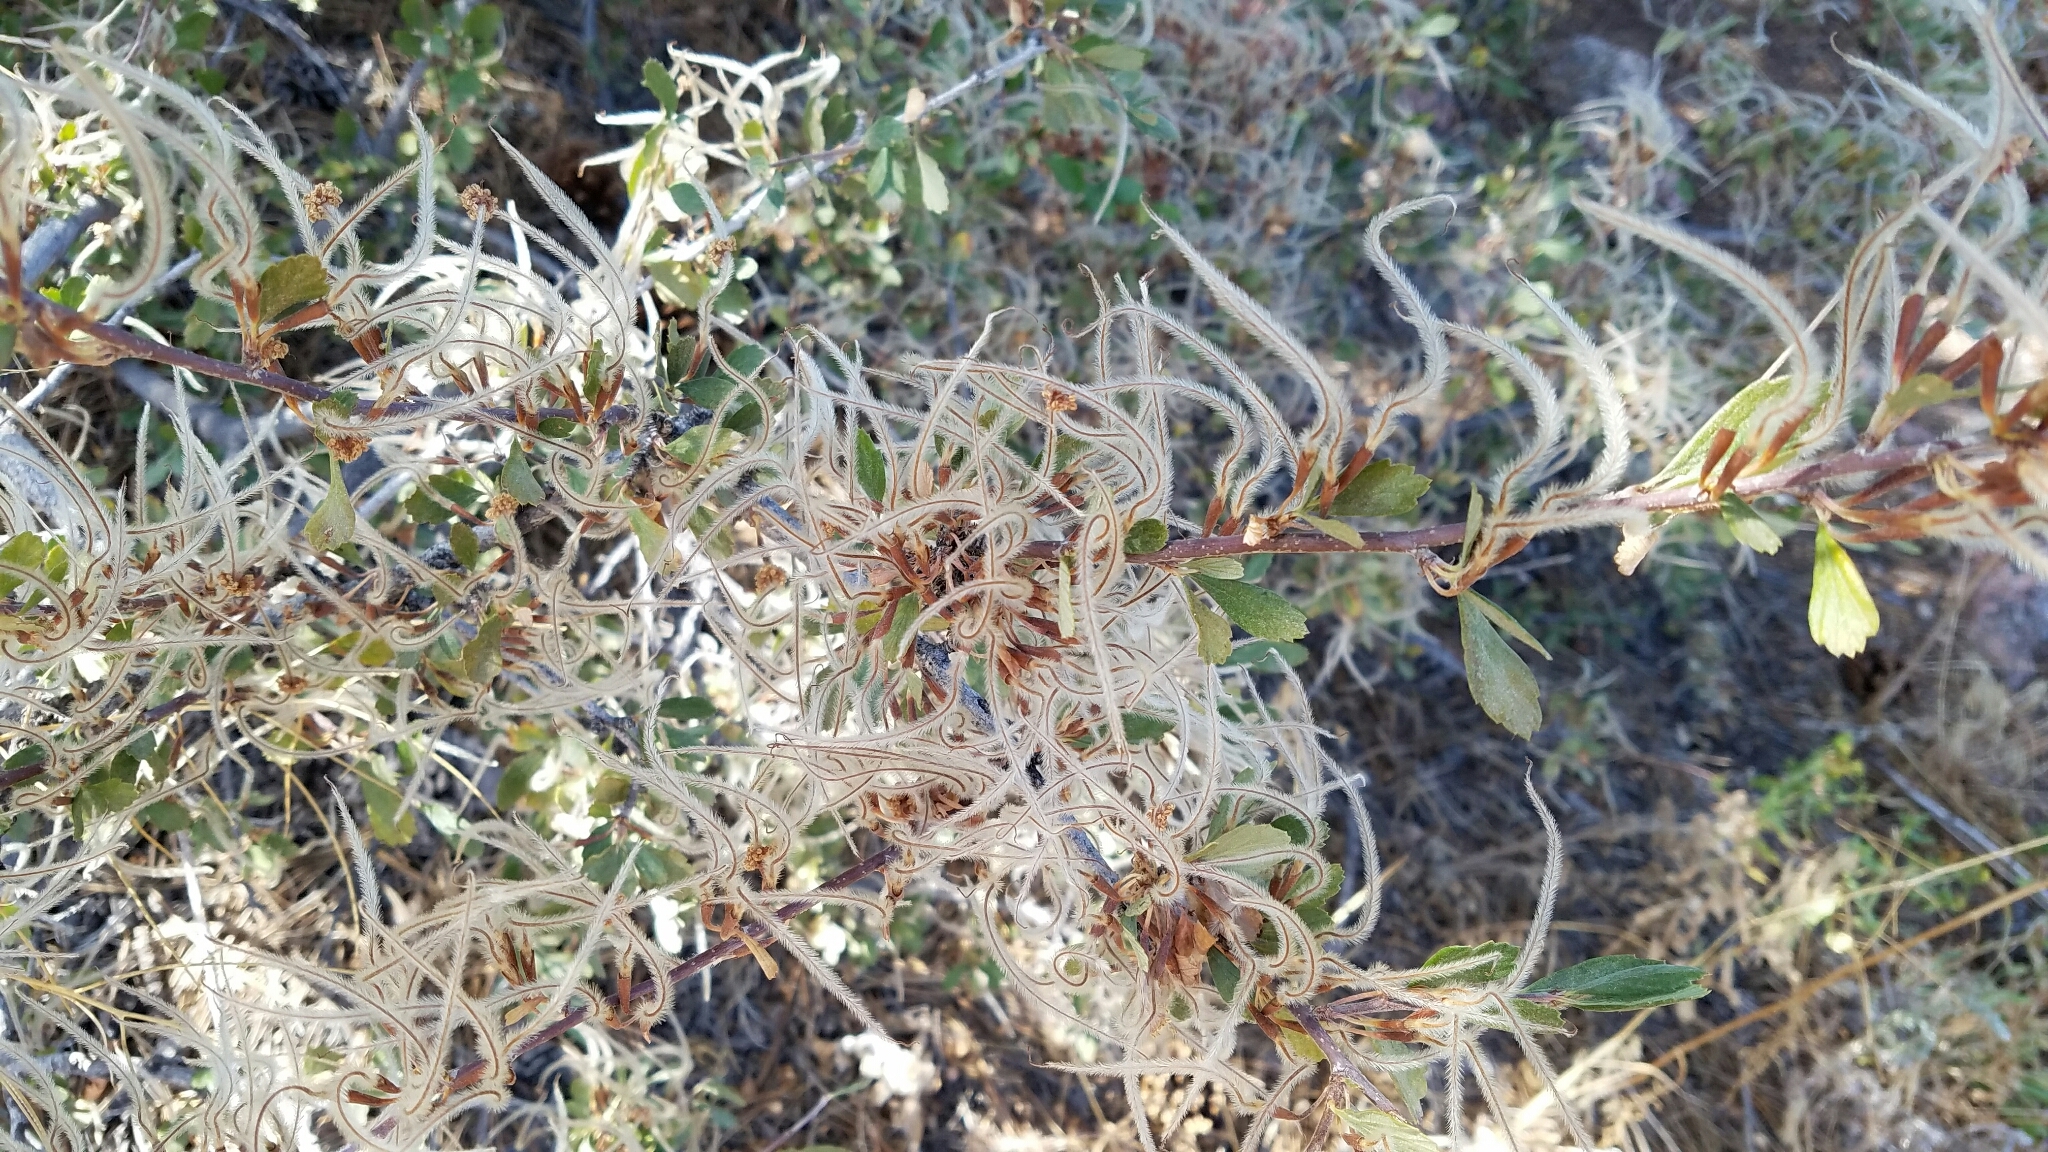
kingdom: Plantae
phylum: Tracheophyta
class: Magnoliopsida
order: Rosales
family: Rosaceae
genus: Cercocarpus
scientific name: Cercocarpus montanus
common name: Alder-leaf cercocarpus
